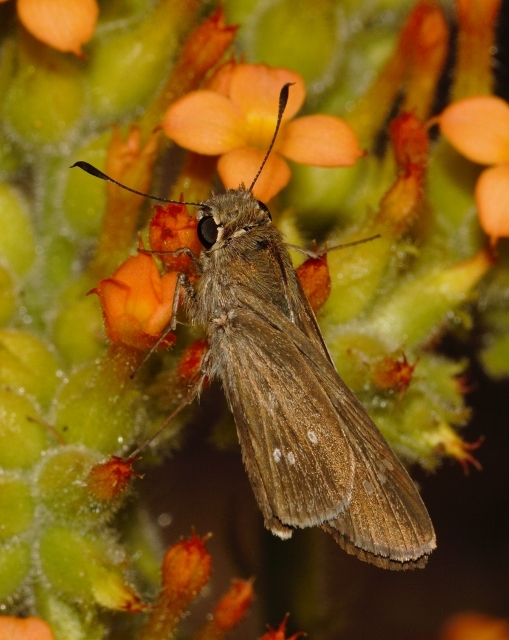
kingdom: Animalia
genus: Torbenlarsenia
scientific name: Torbenlarsenia
